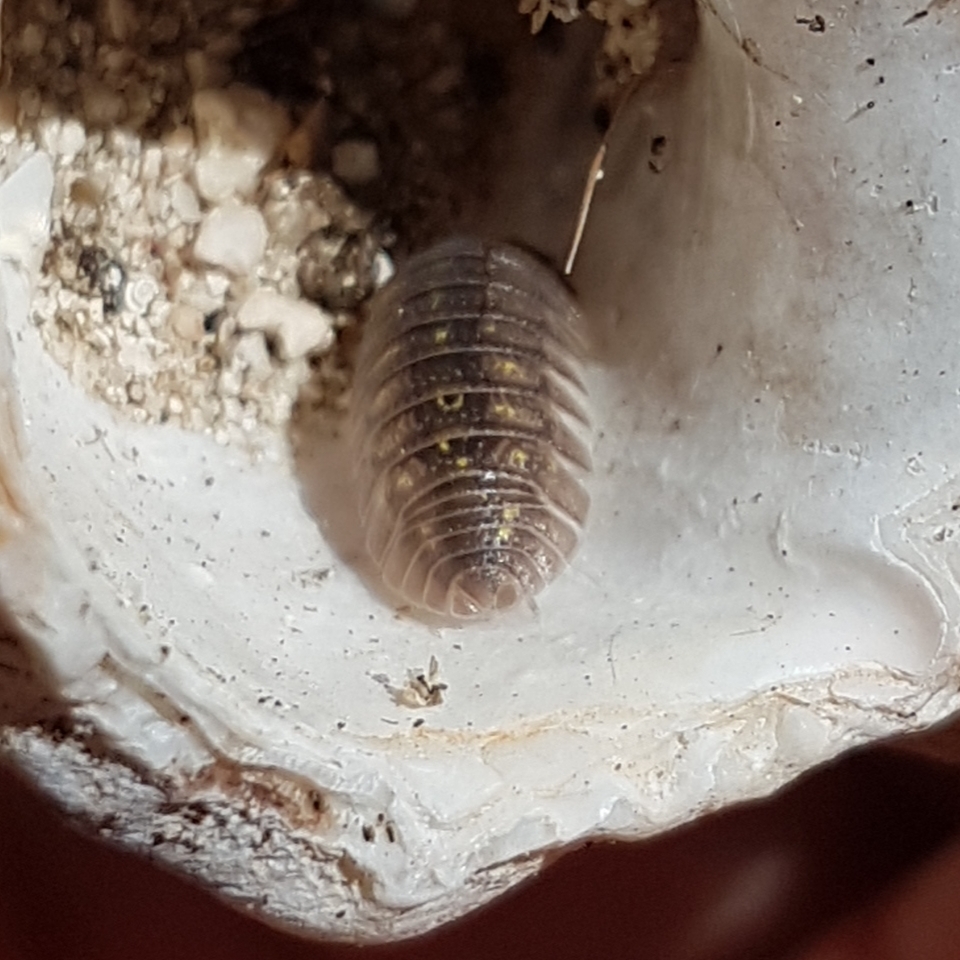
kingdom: Animalia
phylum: Arthropoda
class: Malacostraca
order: Isopoda
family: Armadillidiidae
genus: Armadillidium
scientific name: Armadillidium granulatum
